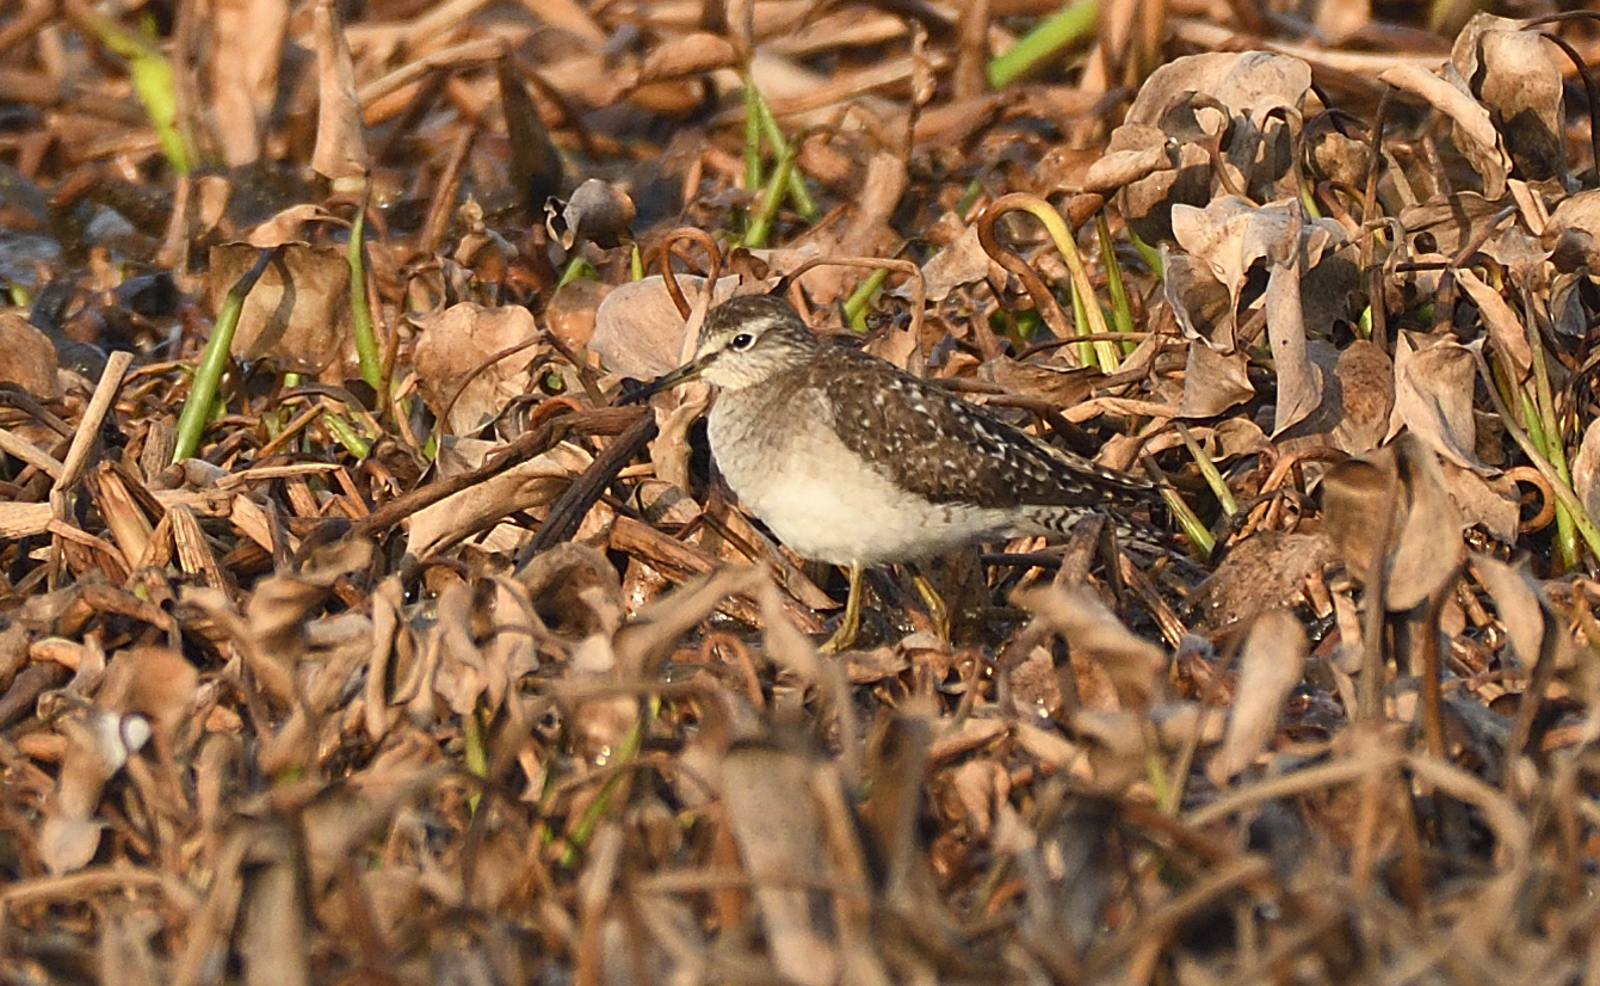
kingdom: Animalia
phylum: Chordata
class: Aves
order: Charadriiformes
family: Scolopacidae
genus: Tringa
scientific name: Tringa glareola
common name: Wood sandpiper
